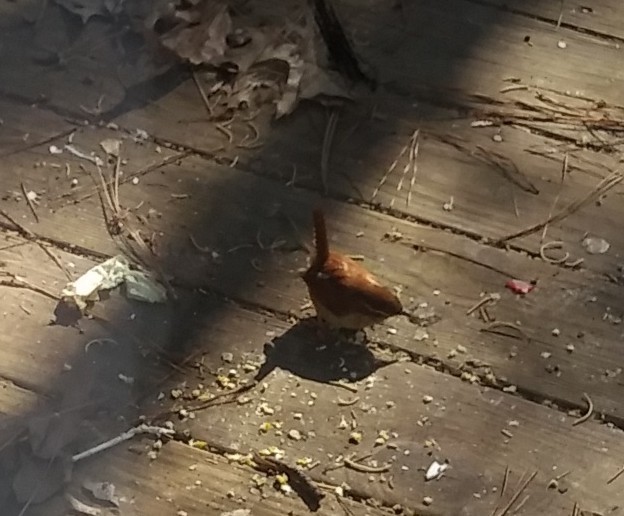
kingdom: Animalia
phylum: Chordata
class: Aves
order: Passeriformes
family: Troglodytidae
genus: Thryothorus
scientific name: Thryothorus ludovicianus
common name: Carolina wren
